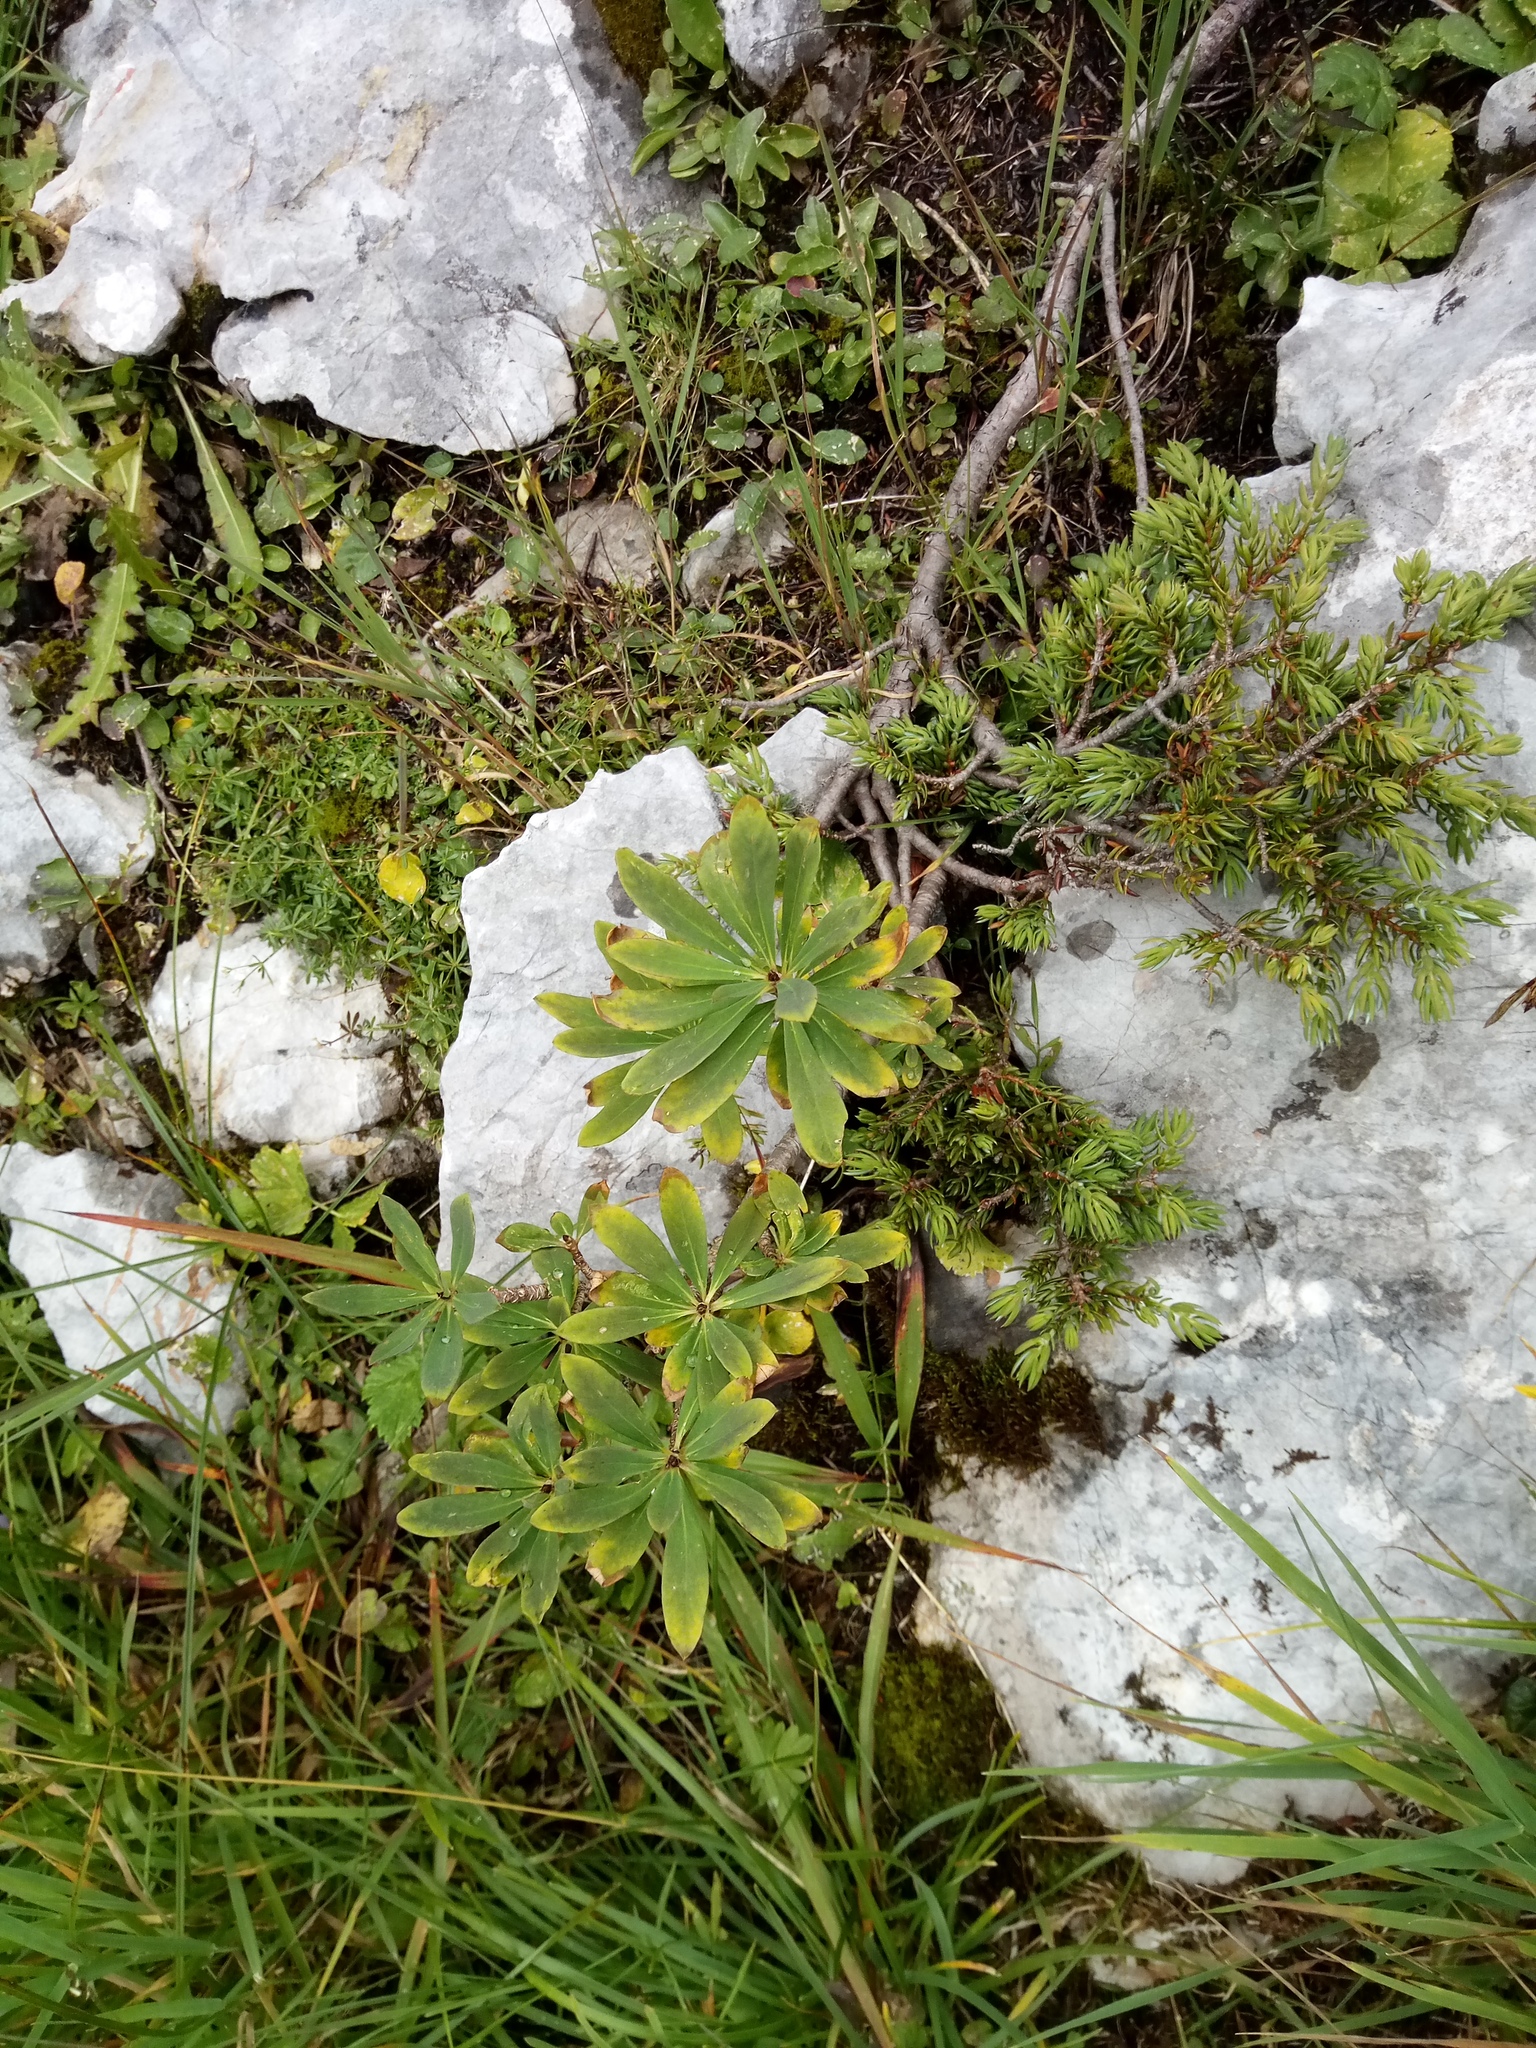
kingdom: Plantae
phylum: Tracheophyta
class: Magnoliopsida
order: Malvales
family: Thymelaeaceae
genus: Daphne
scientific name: Daphne mezereum
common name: Mezereon
